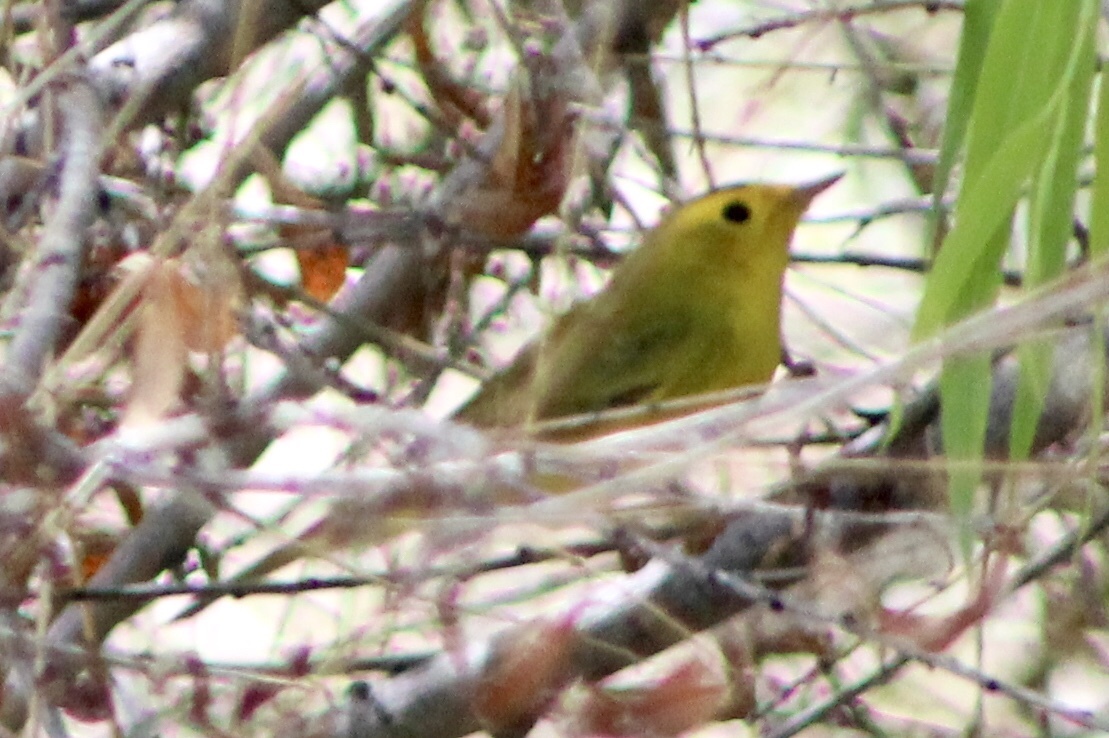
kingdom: Animalia
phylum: Chordata
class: Aves
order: Passeriformes
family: Parulidae
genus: Cardellina
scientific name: Cardellina pusilla
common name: Wilson's warbler
